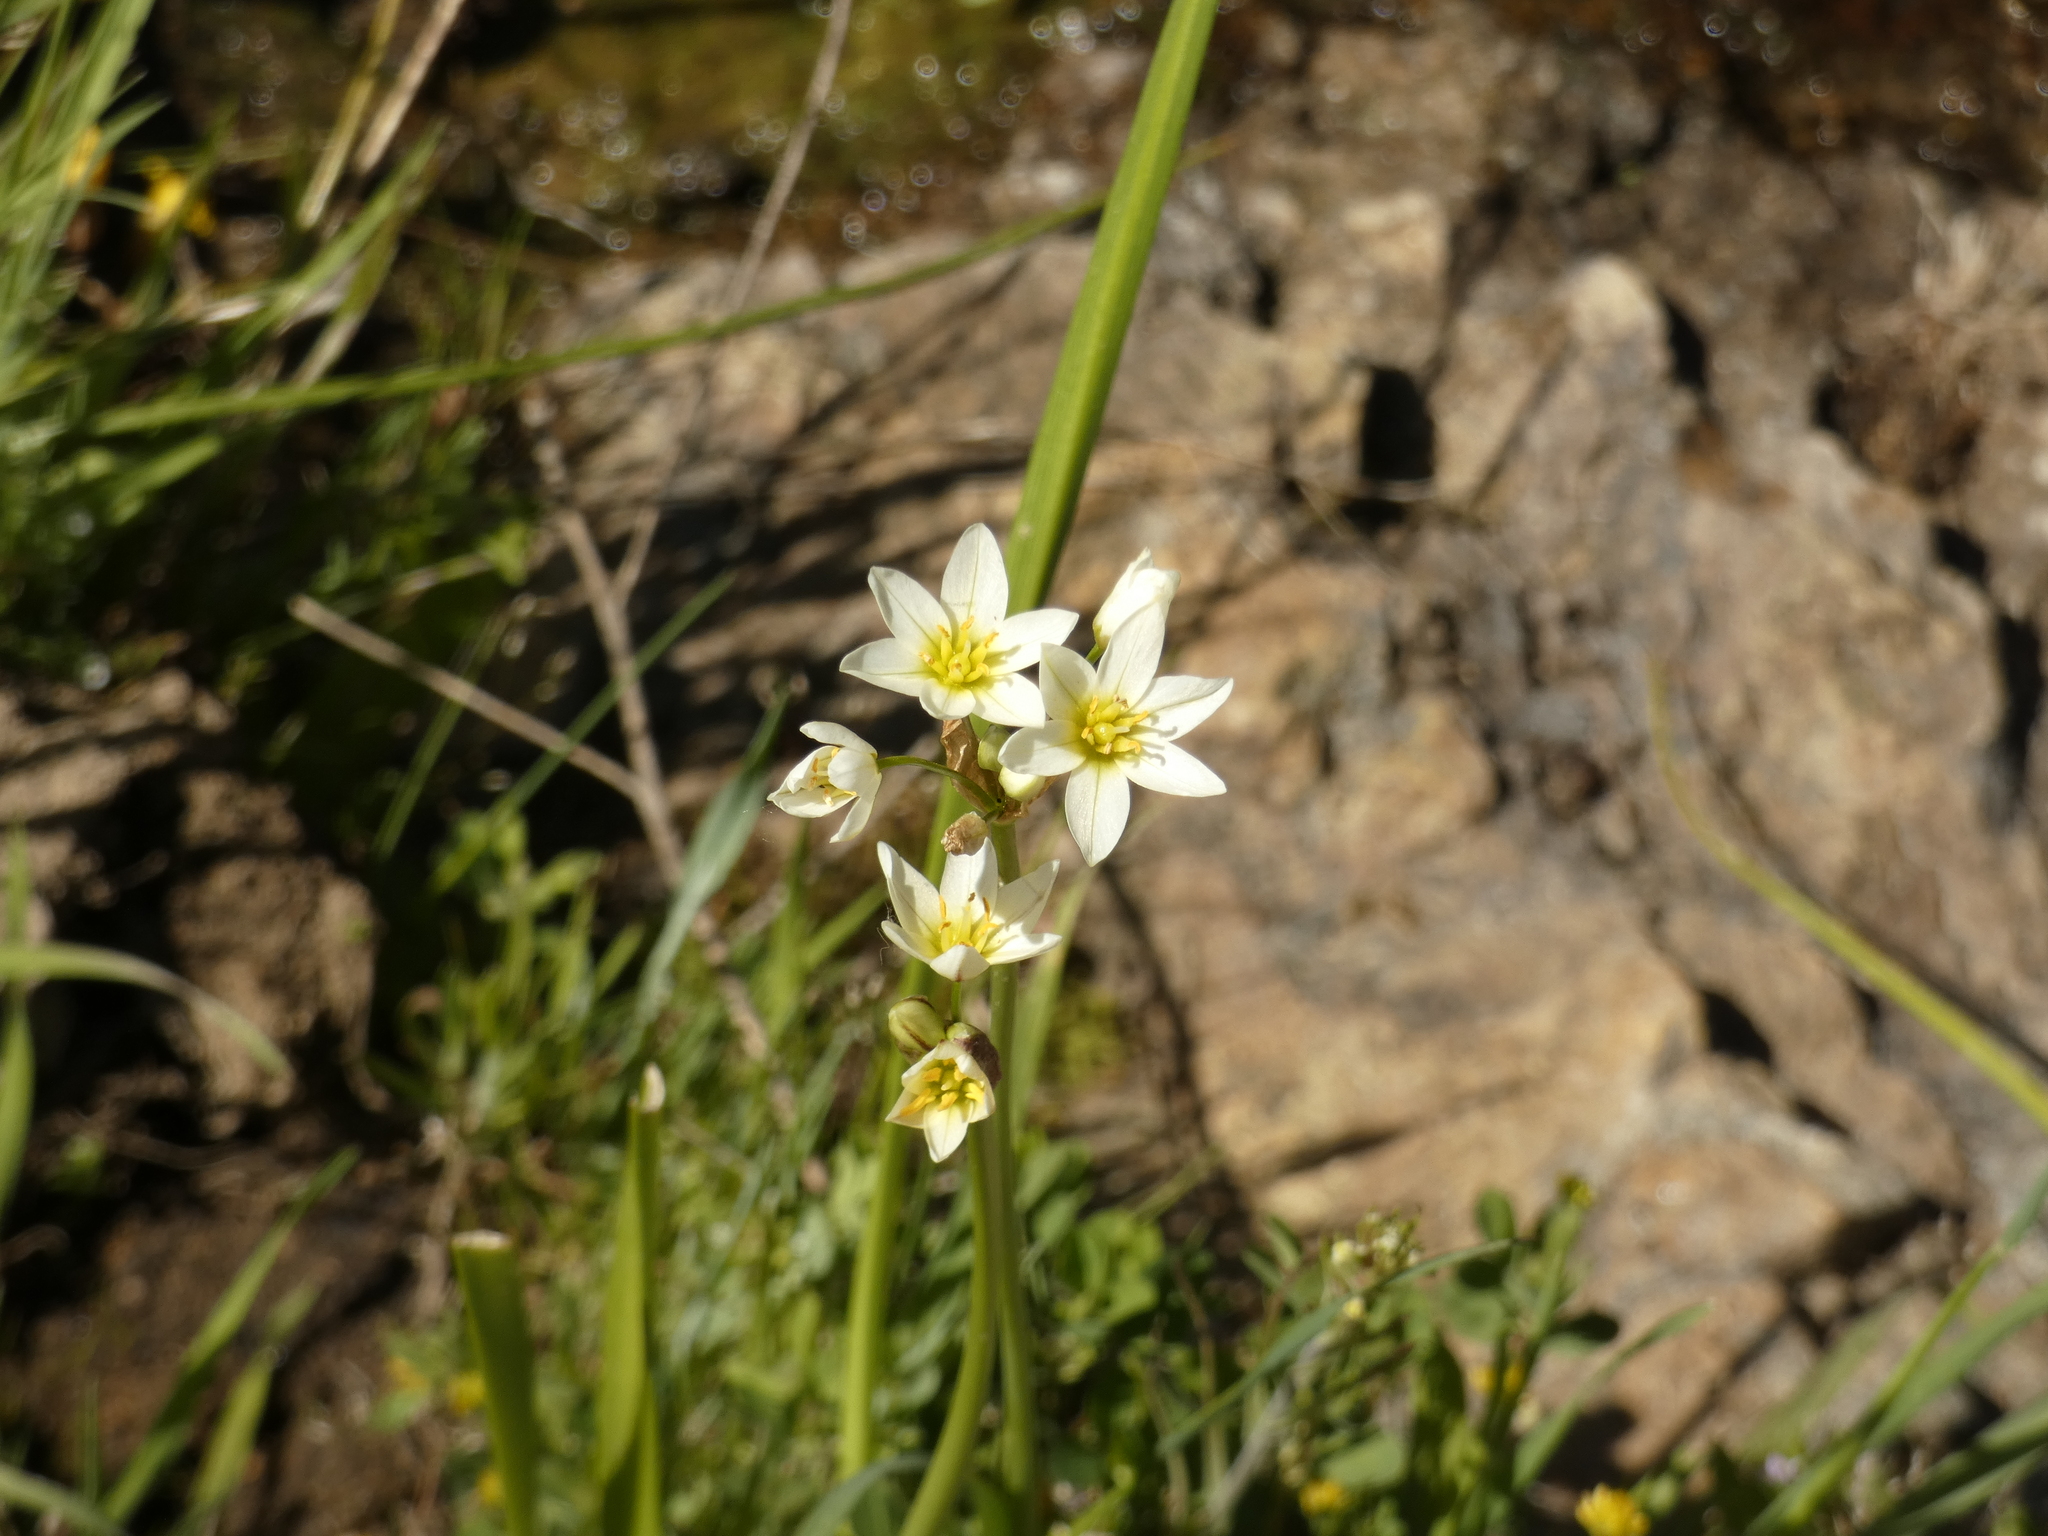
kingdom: Plantae
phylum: Tracheophyta
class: Liliopsida
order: Asparagales
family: Amaryllidaceae
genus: Nothoscordum
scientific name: Nothoscordum bivalve
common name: Crow-poison
